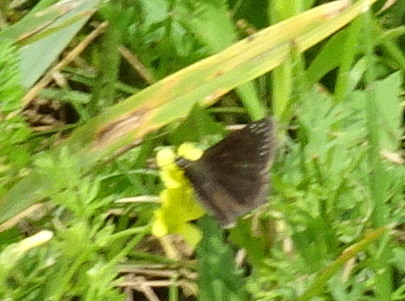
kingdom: Animalia
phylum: Arthropoda
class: Insecta
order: Lepidoptera
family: Hesperiidae
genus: Pholisora
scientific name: Pholisora catullus
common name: Common sootywing
